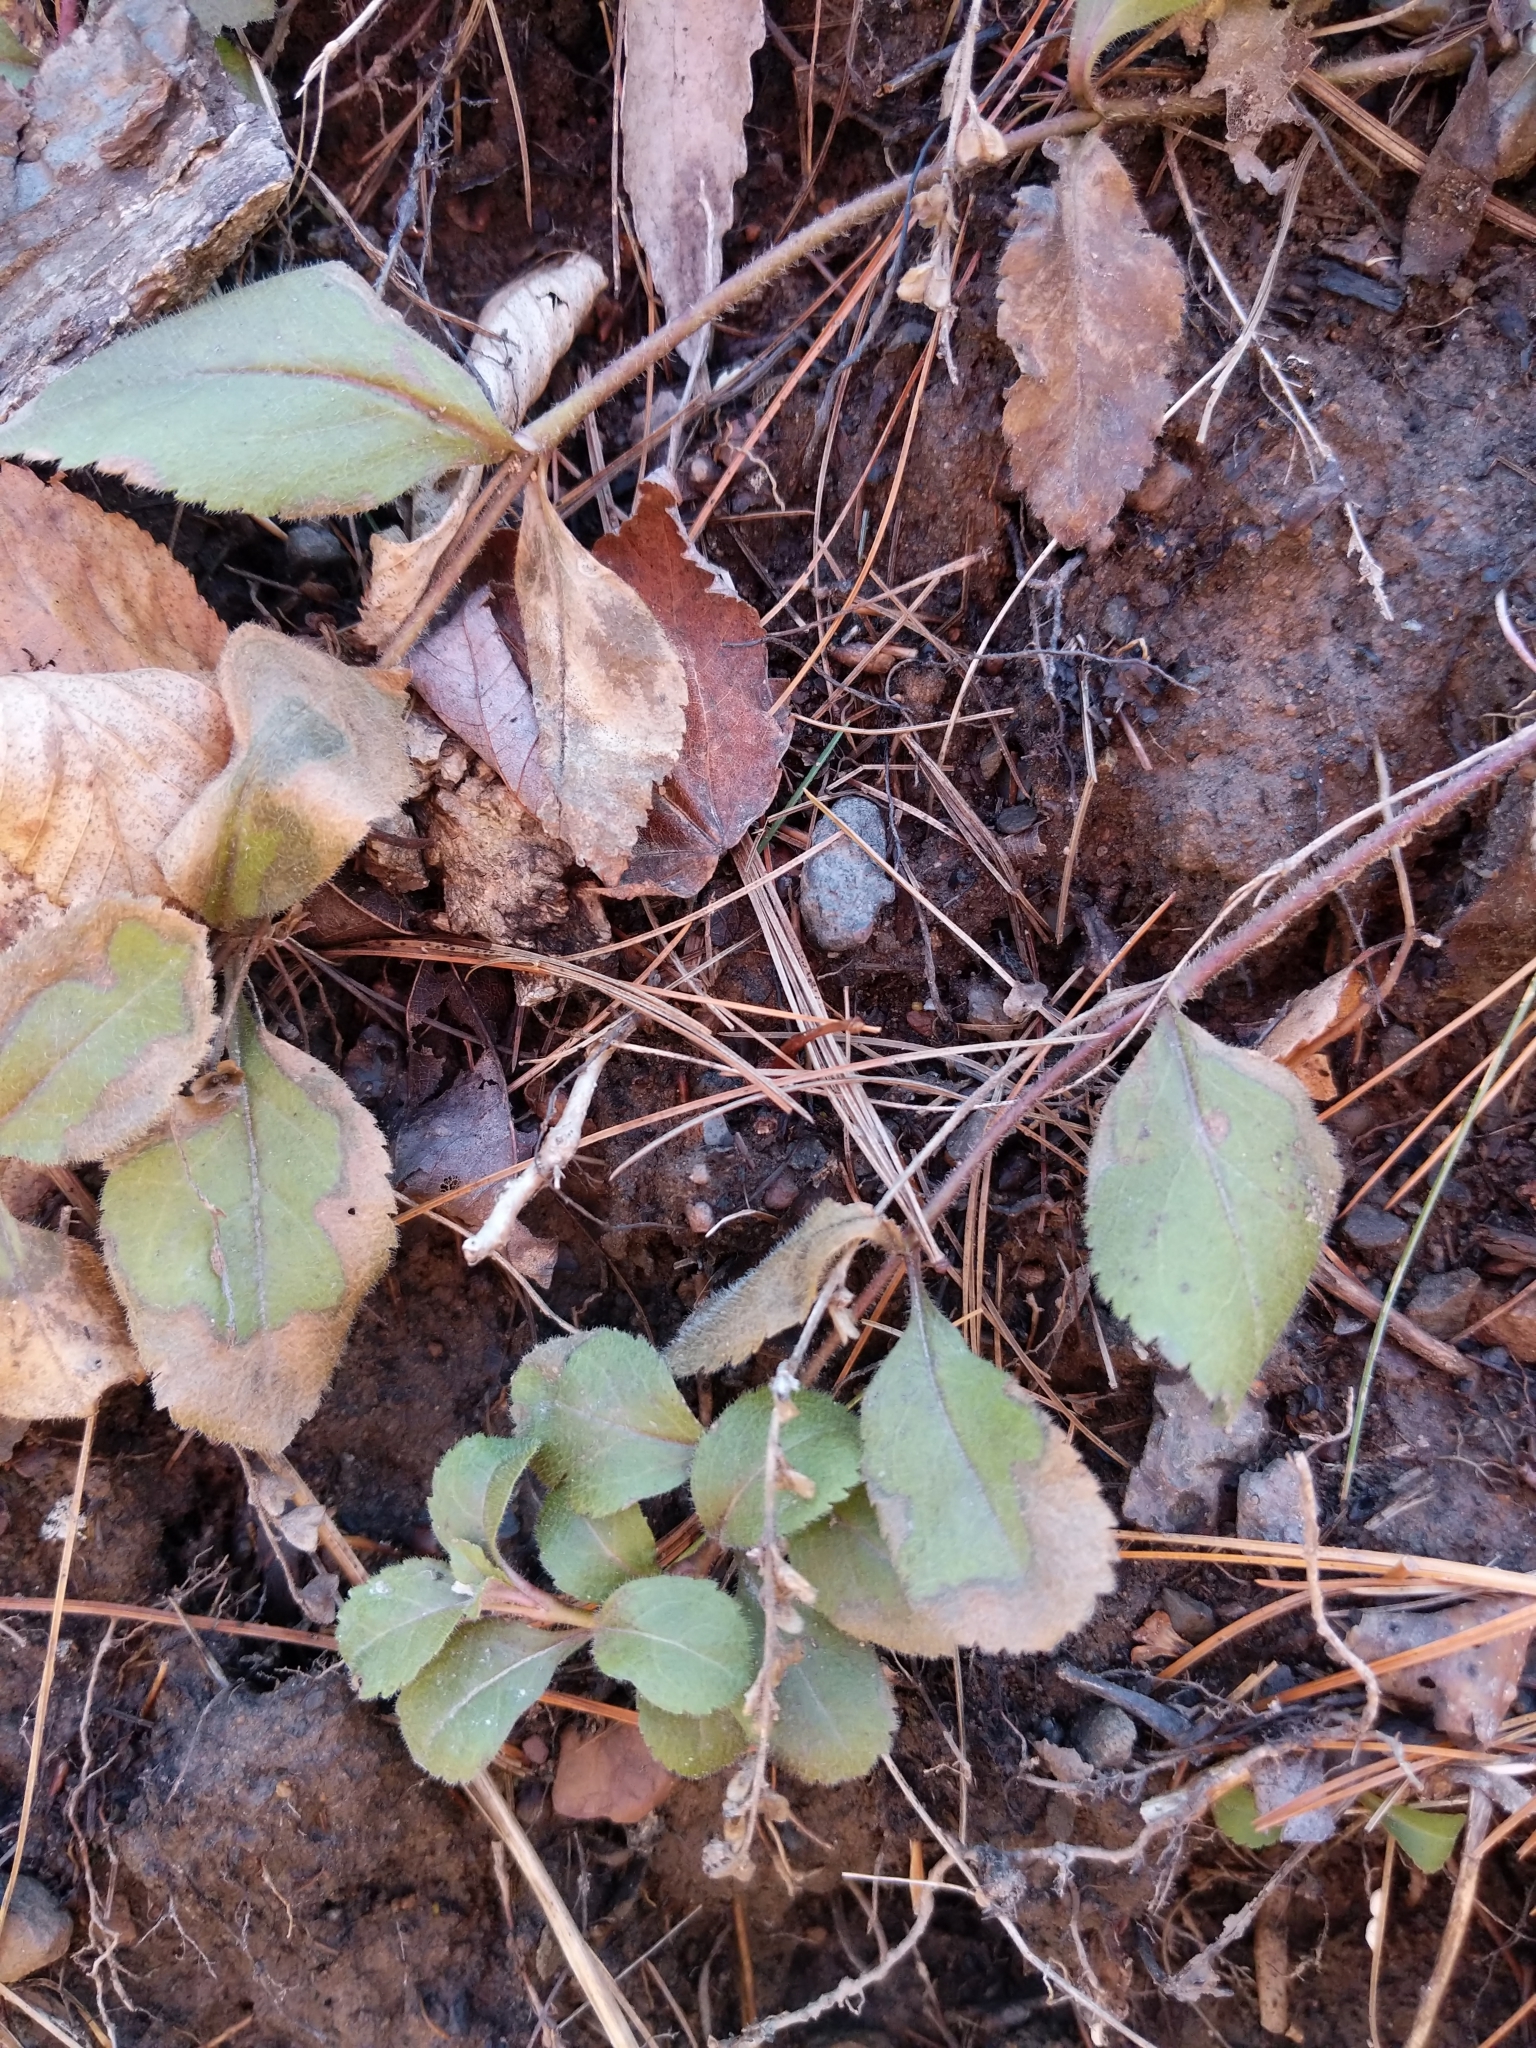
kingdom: Plantae
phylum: Tracheophyta
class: Magnoliopsida
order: Lamiales
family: Plantaginaceae
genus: Veronica
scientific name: Veronica officinalis
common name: Common speedwell
